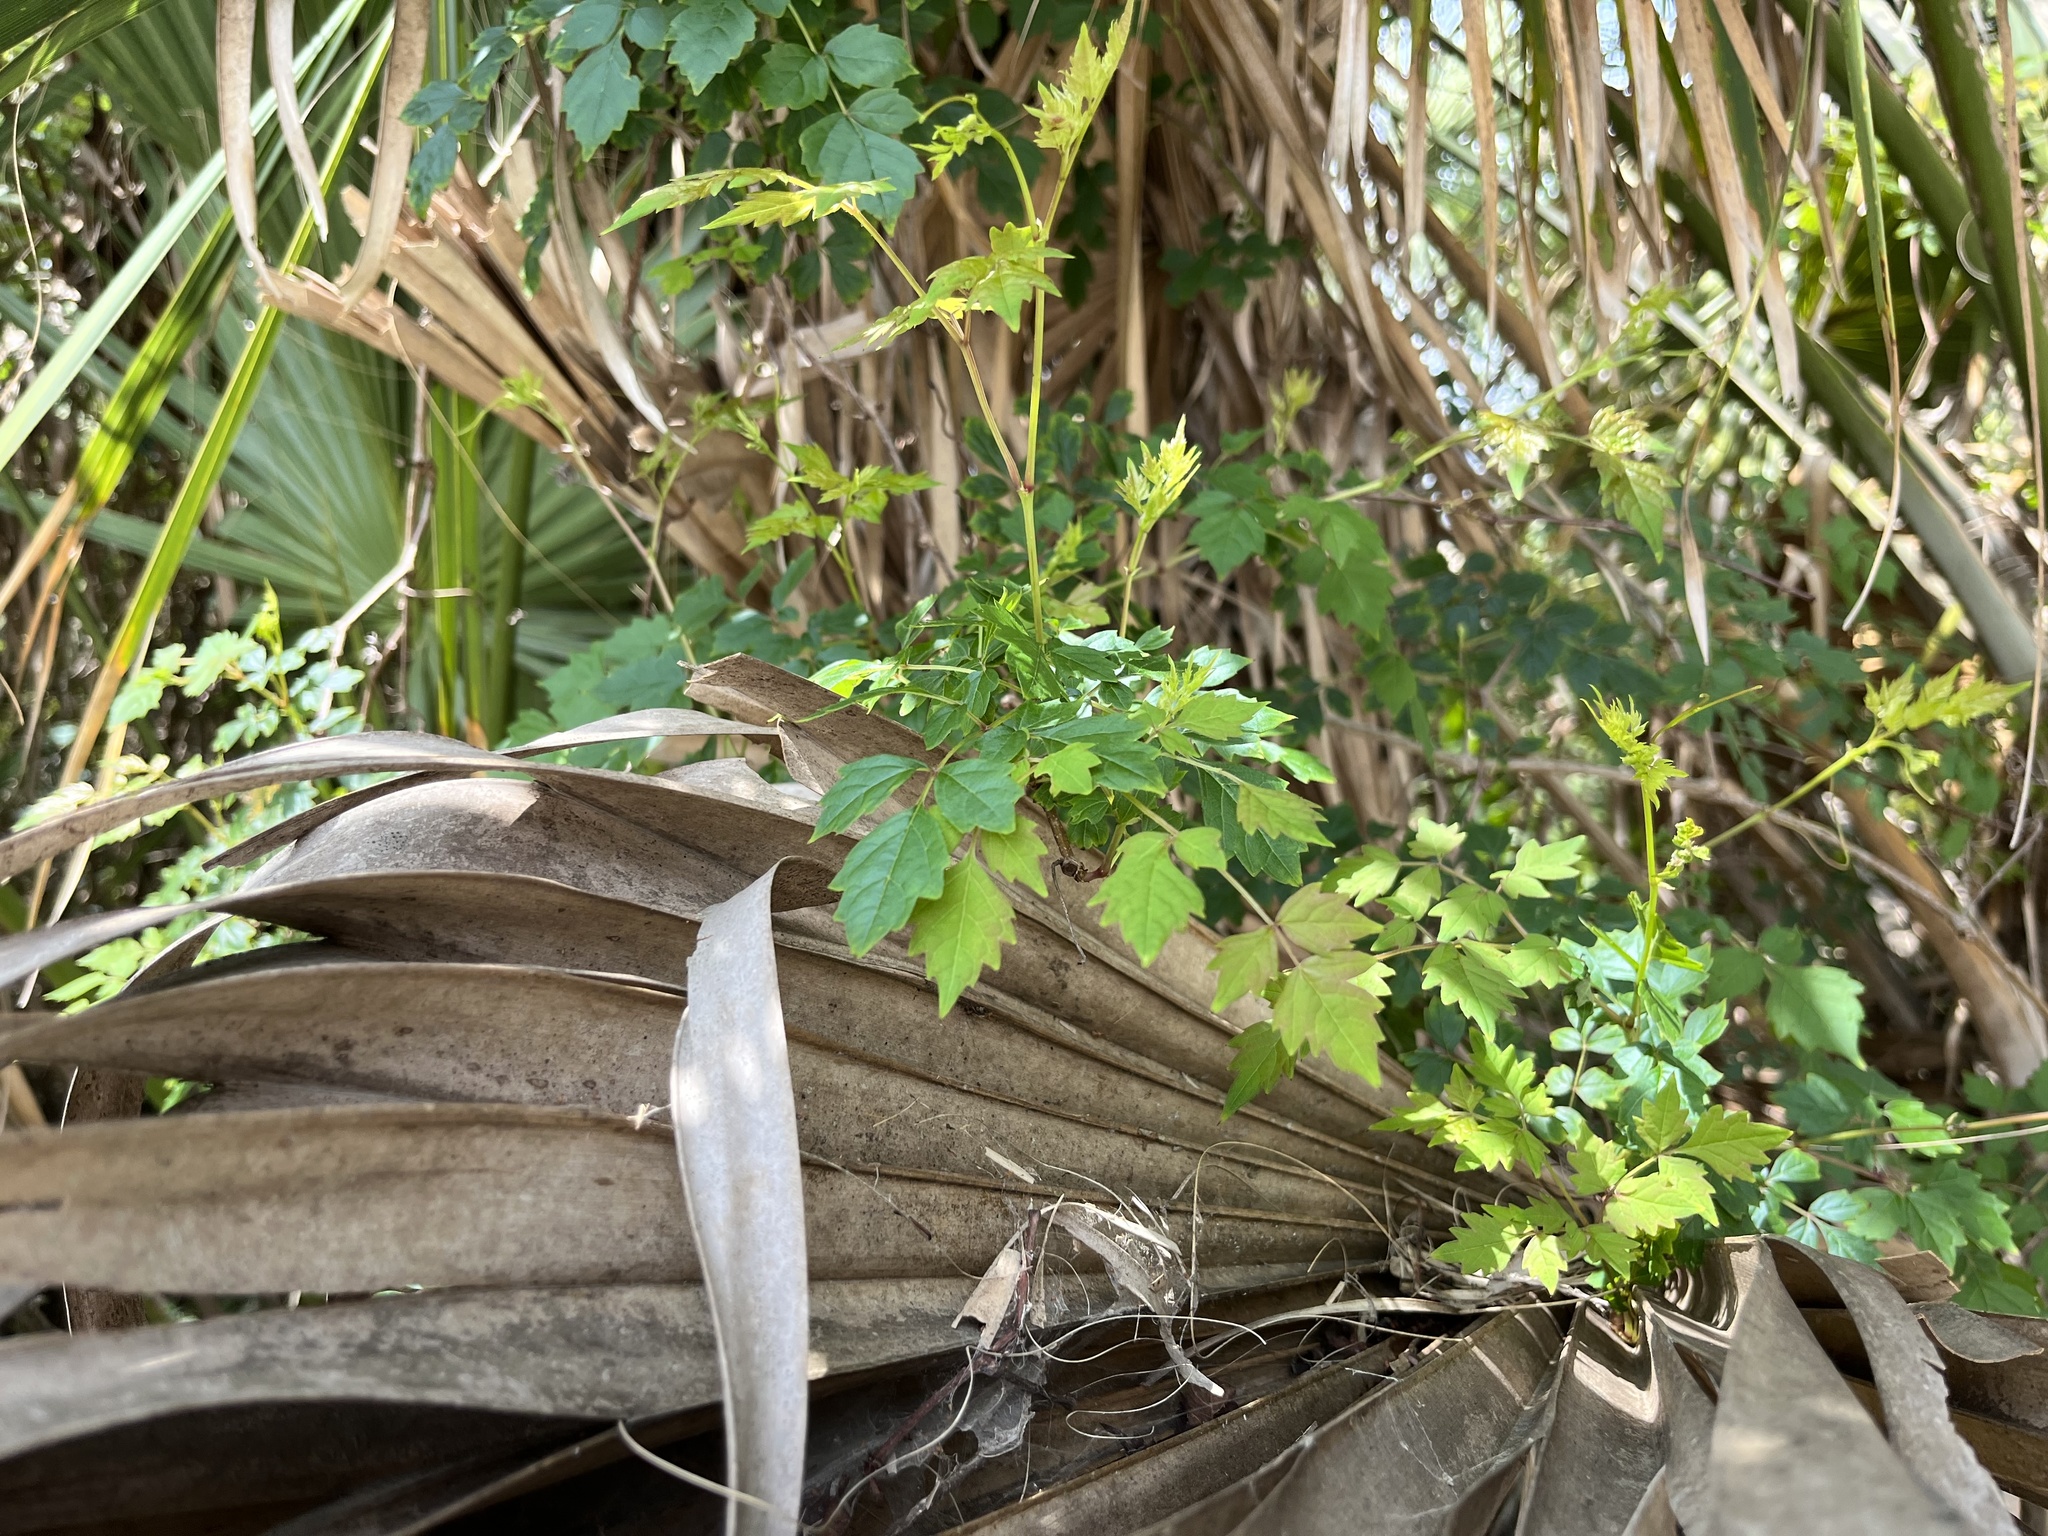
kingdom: Plantae
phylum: Tracheophyta
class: Magnoliopsida
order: Vitales
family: Vitaceae
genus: Nekemias
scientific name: Nekemias arborea
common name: Peppervine
